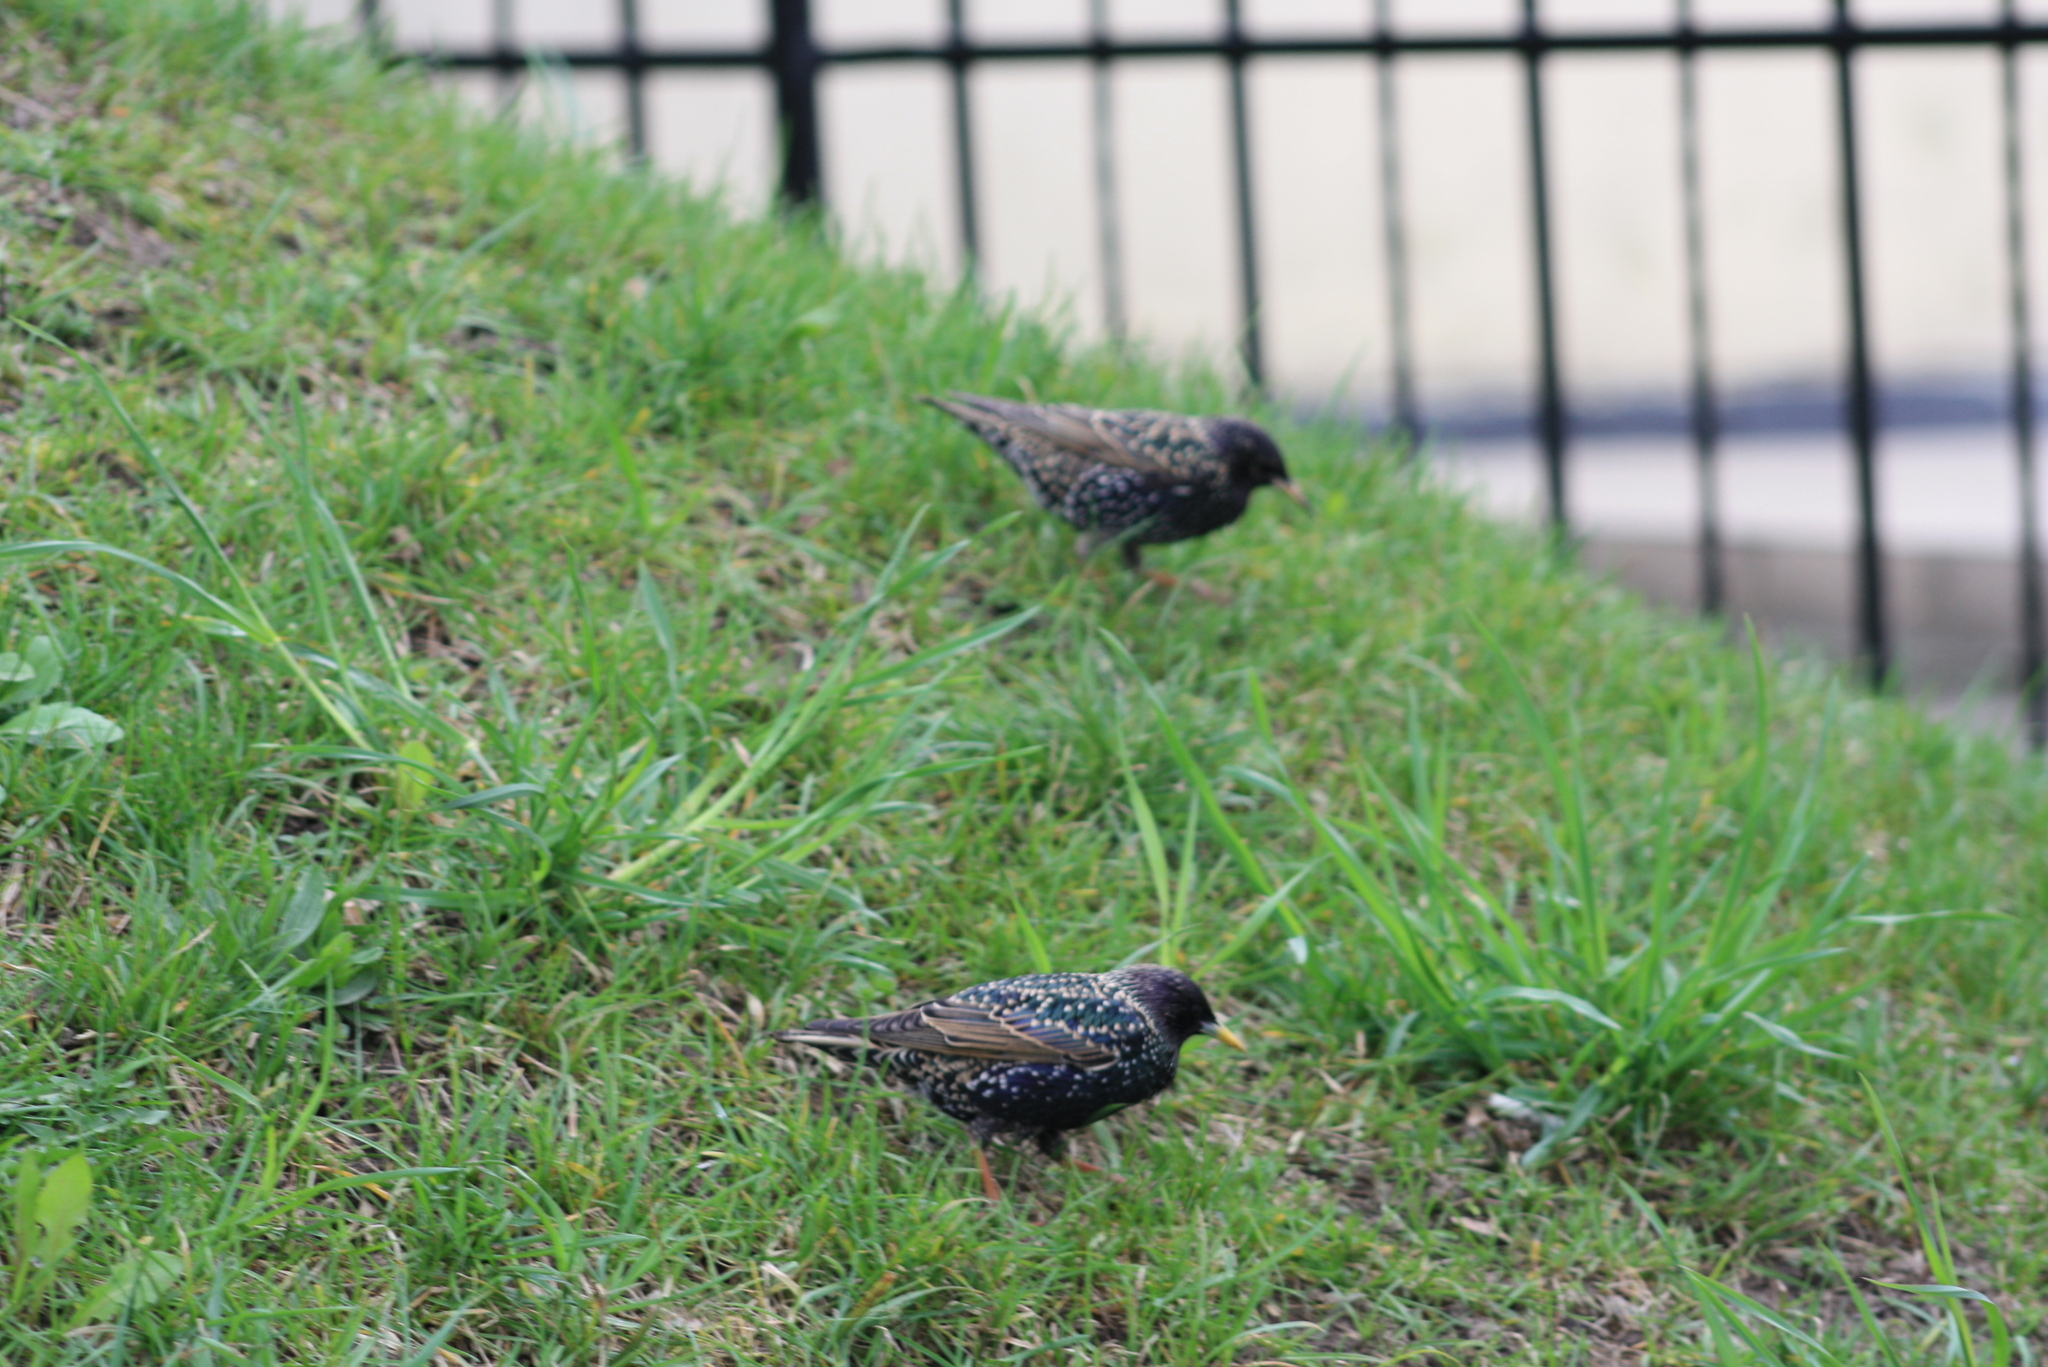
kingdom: Animalia
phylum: Chordata
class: Aves
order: Passeriformes
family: Sturnidae
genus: Sturnus
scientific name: Sturnus vulgaris
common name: Common starling
